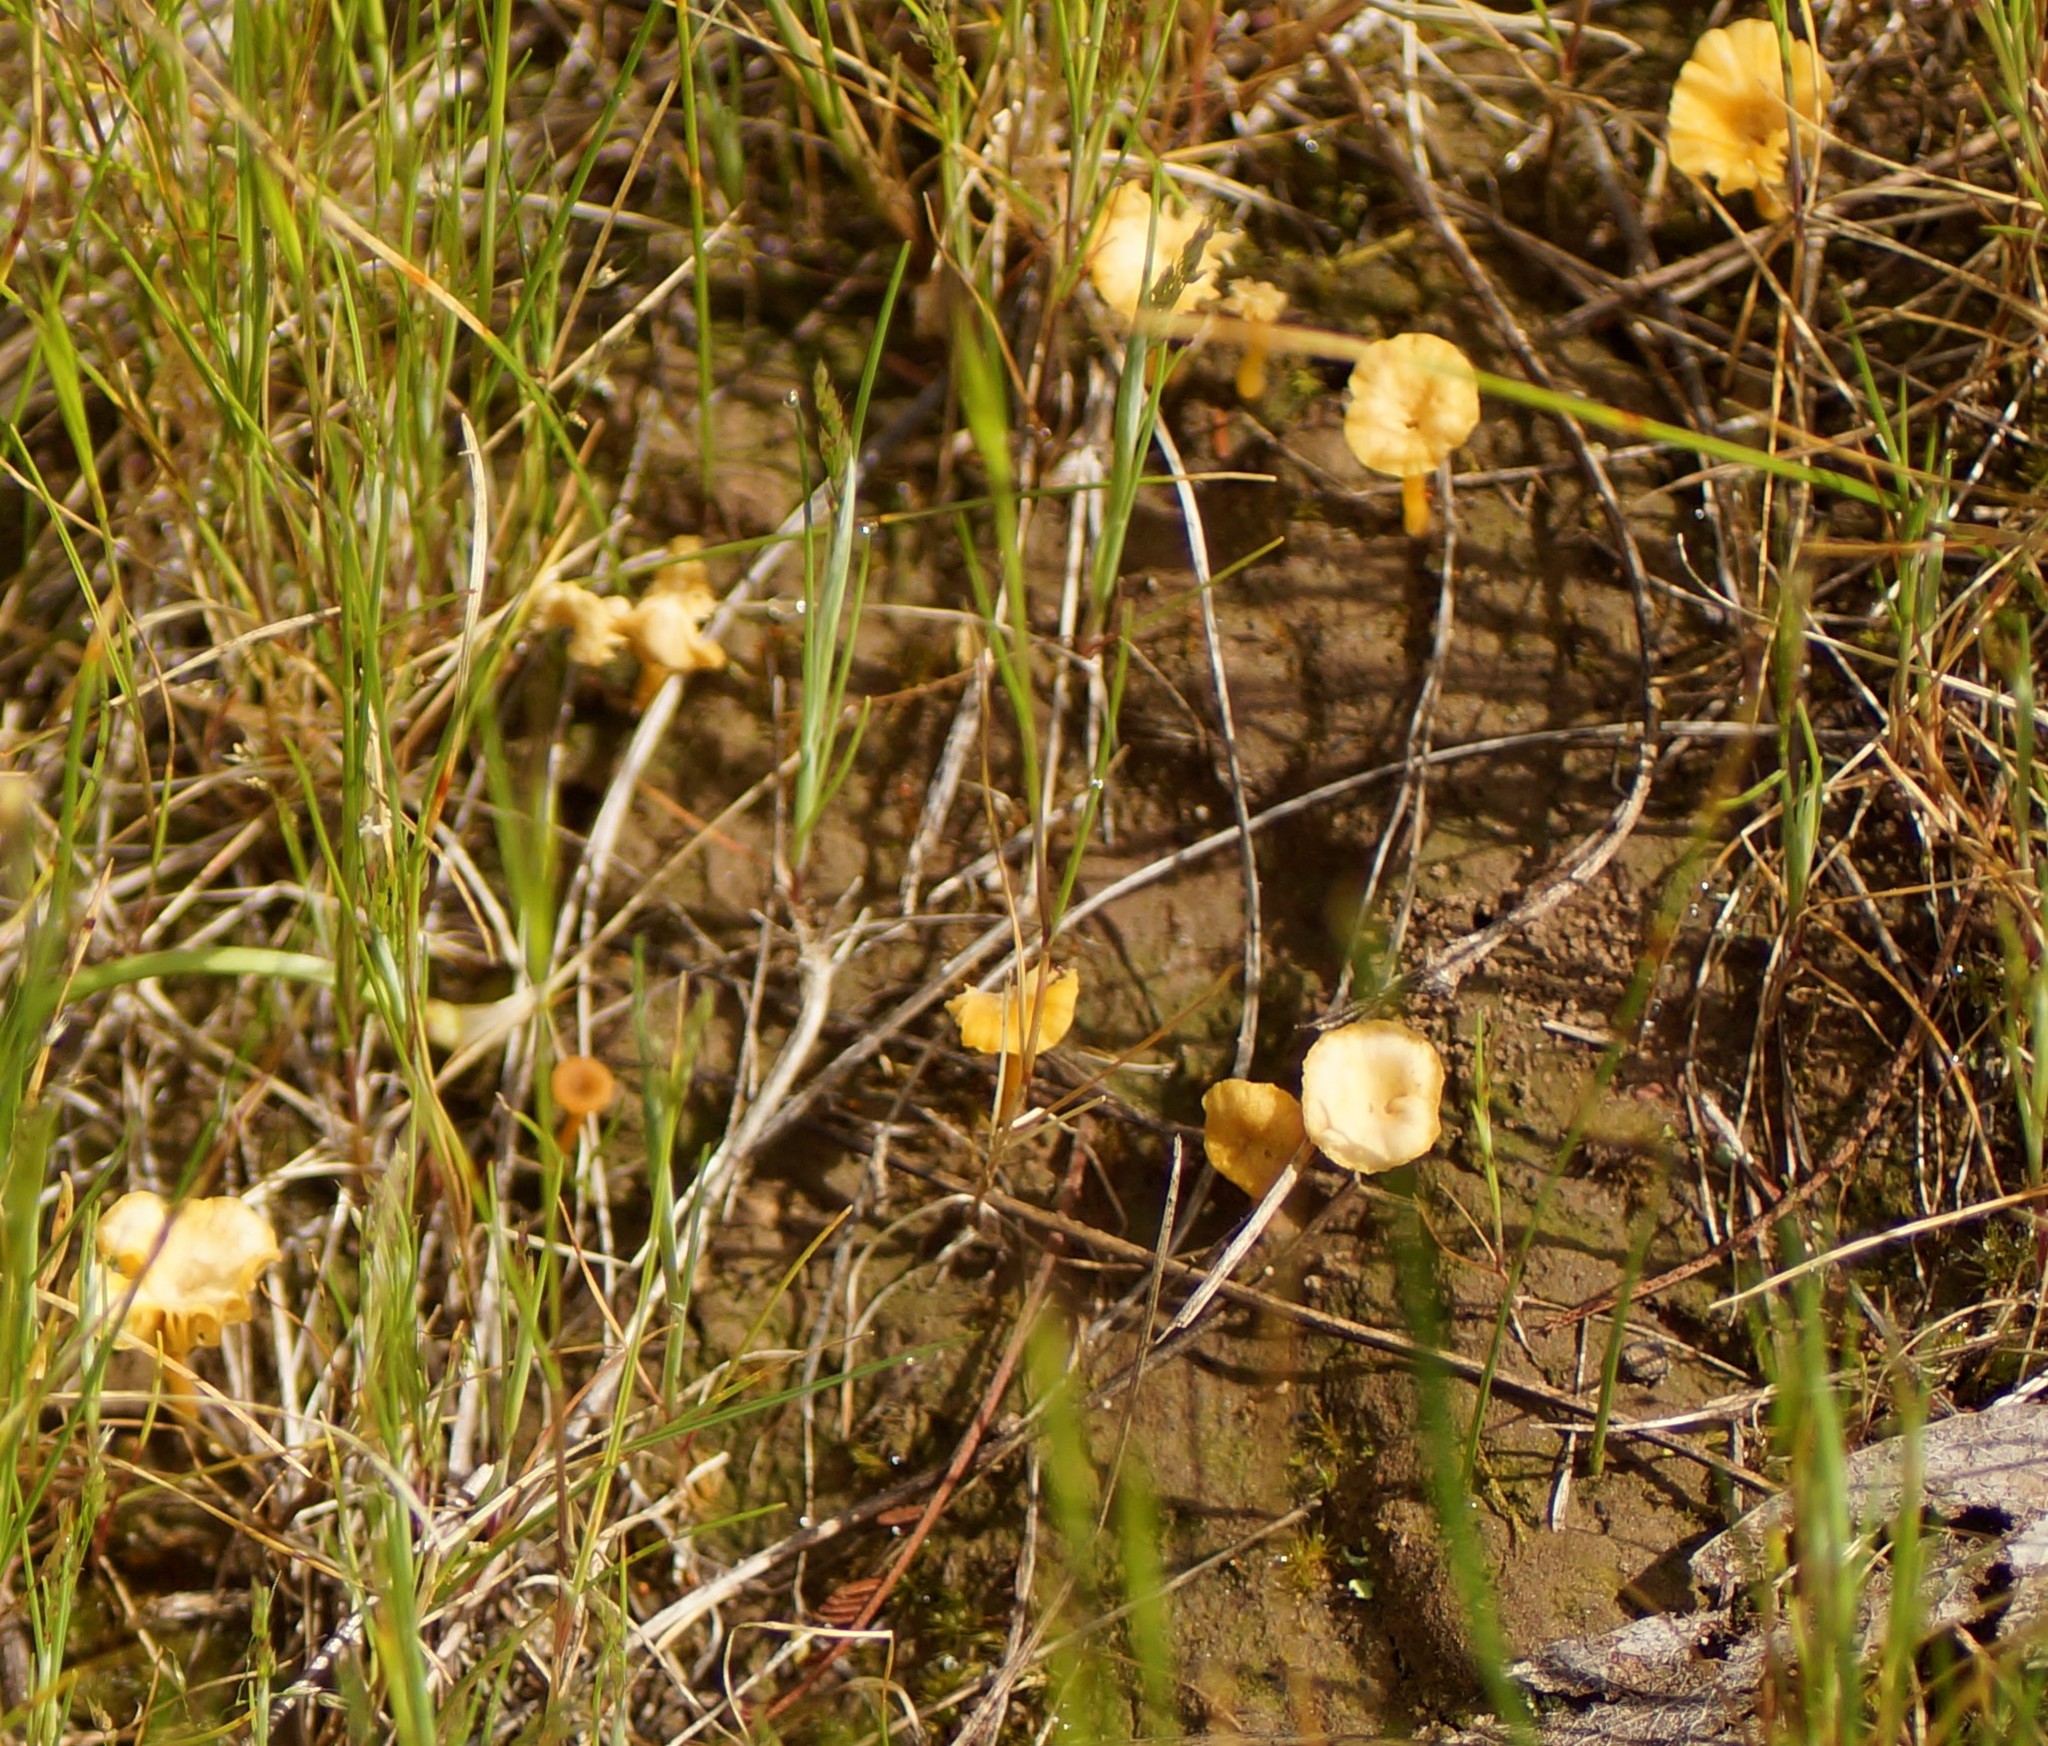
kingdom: Fungi
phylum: Basidiomycota
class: Agaricomycetes
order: Agaricales
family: Hygrophoraceae
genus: Lichenomphalia
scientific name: Lichenomphalia chromacea
